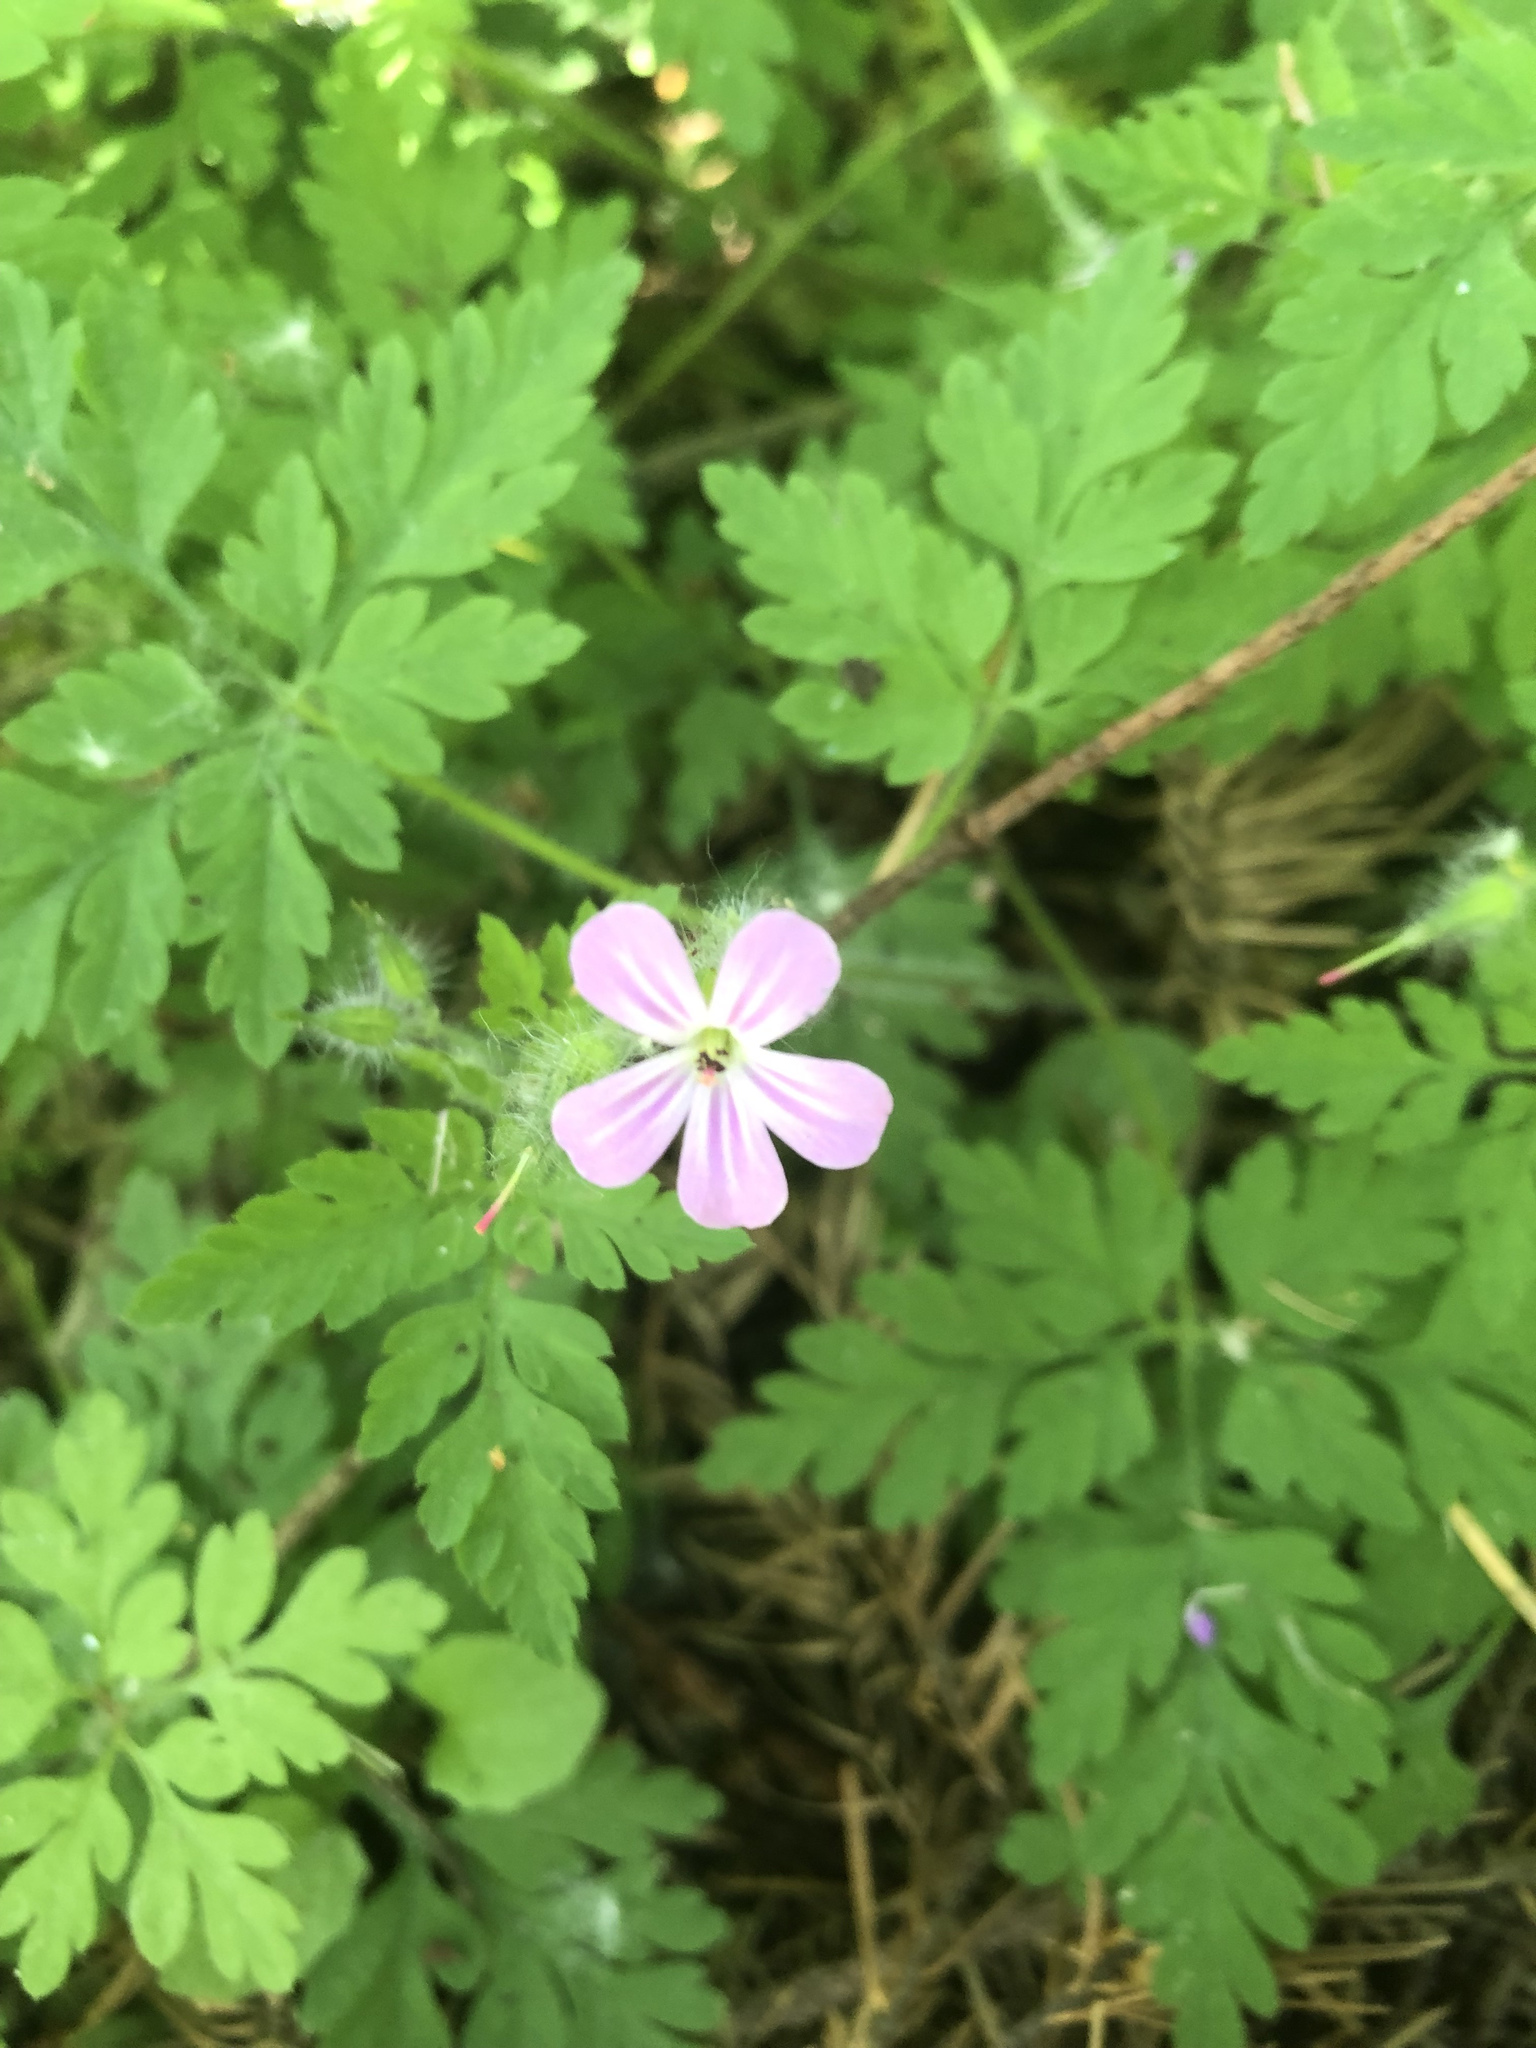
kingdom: Plantae
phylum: Tracheophyta
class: Magnoliopsida
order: Geraniales
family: Geraniaceae
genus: Geranium
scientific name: Geranium robertianum
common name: Herb-robert
